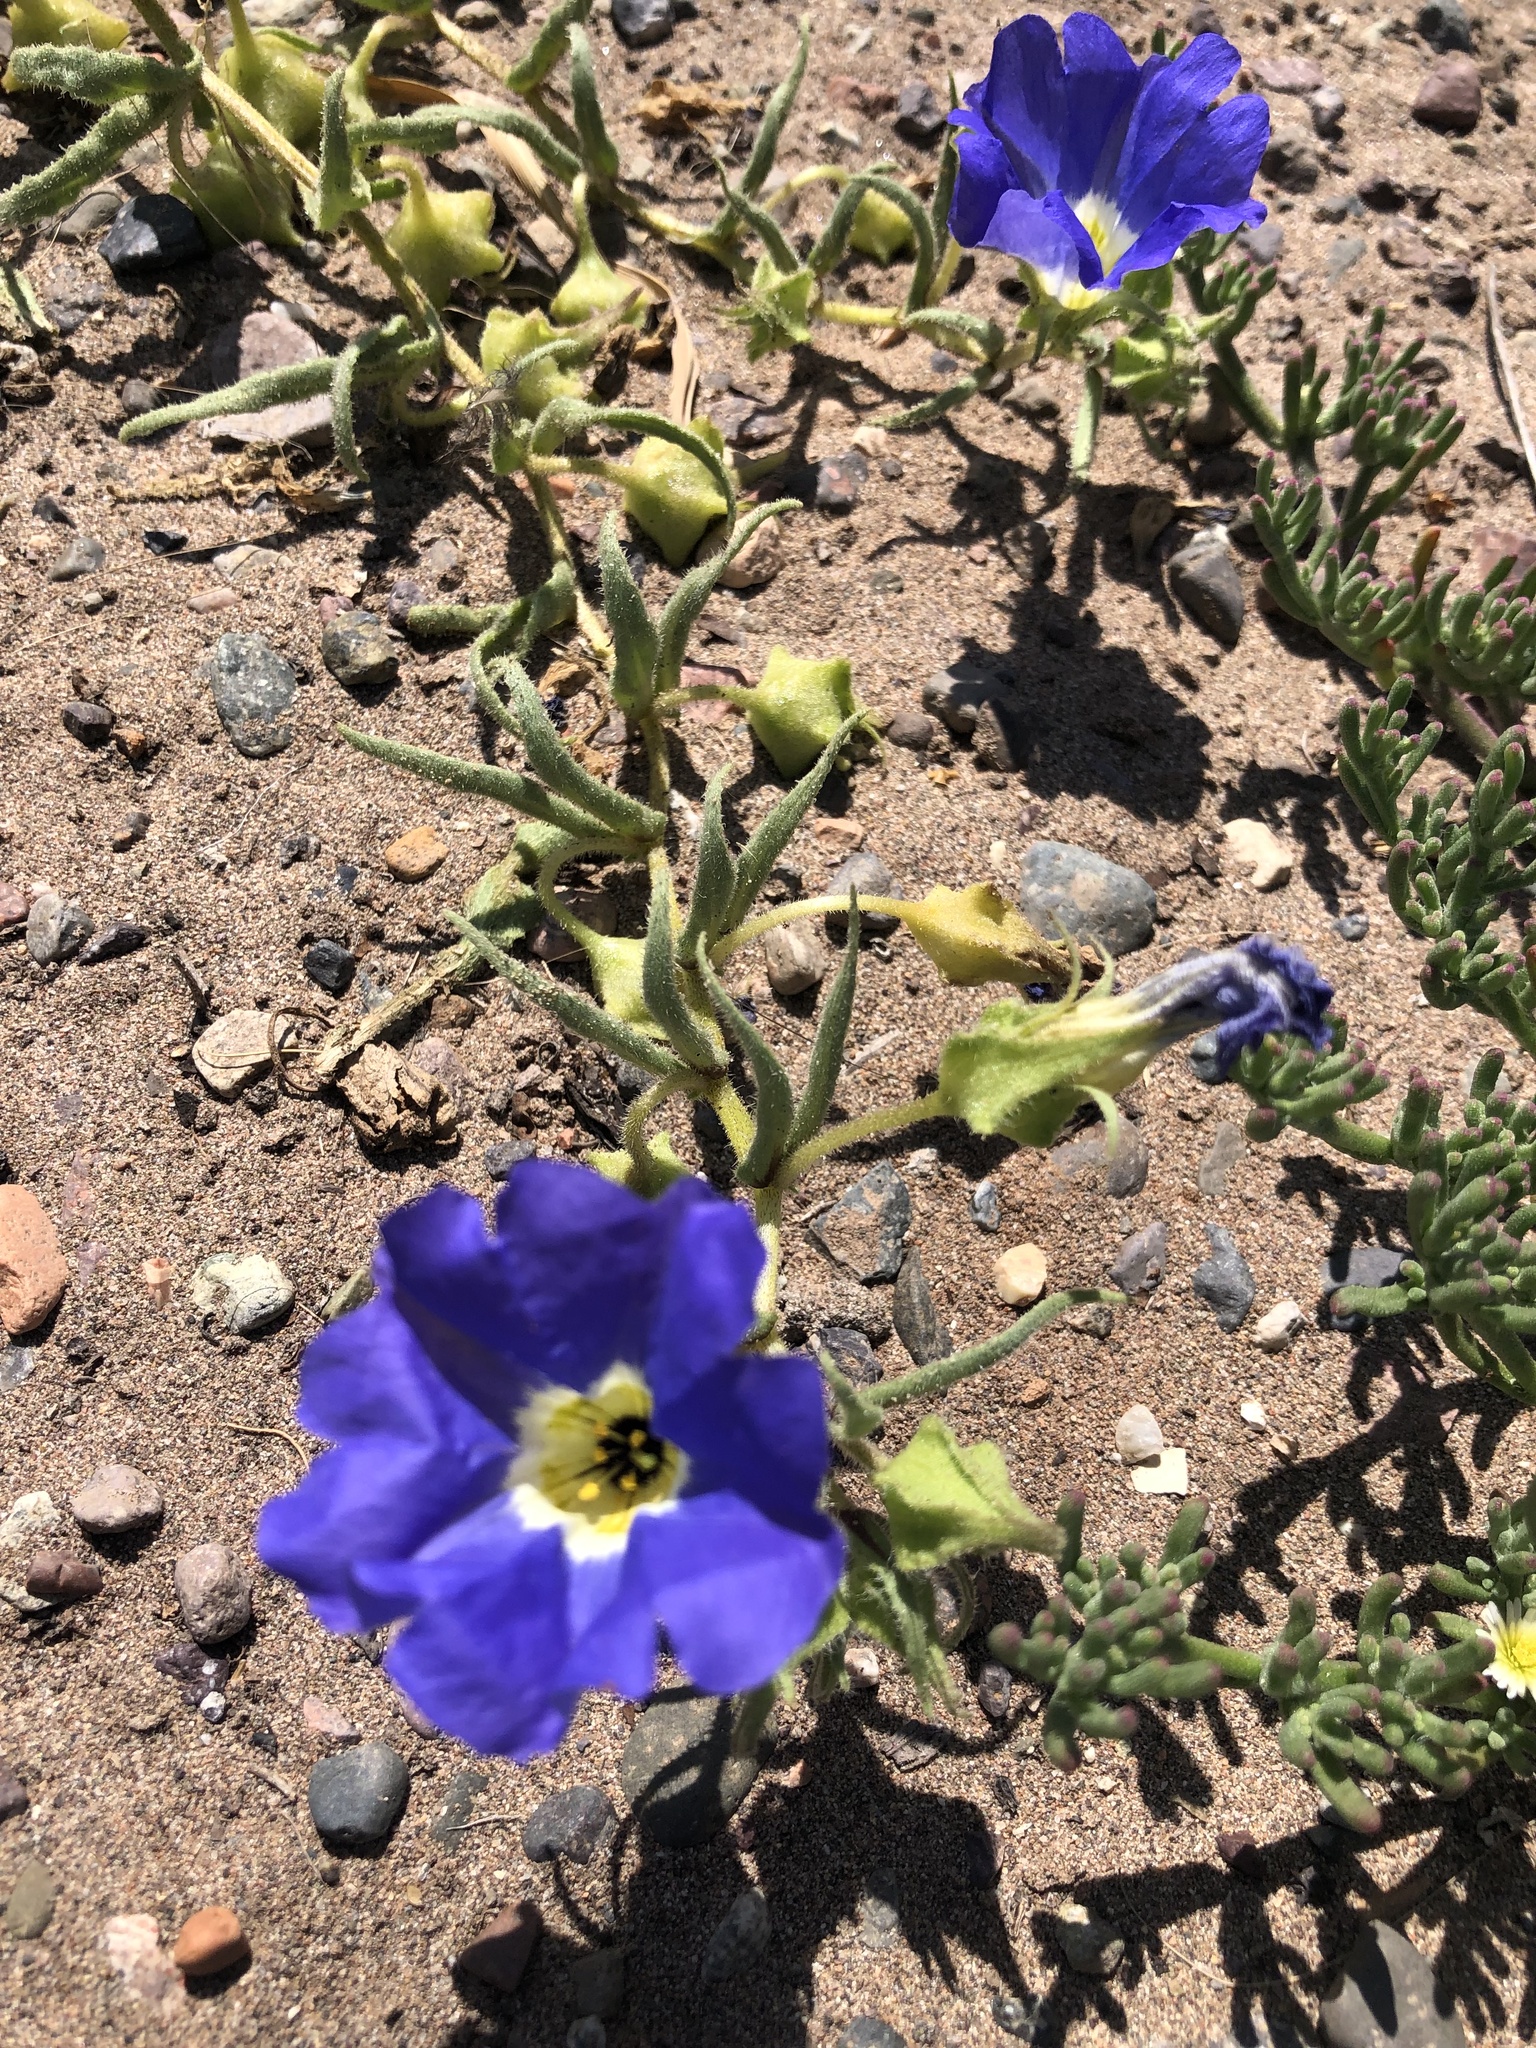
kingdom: Plantae
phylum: Tracheophyta
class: Magnoliopsida
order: Solanales
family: Solanaceae
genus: Nolana
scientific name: Nolana acuminata
